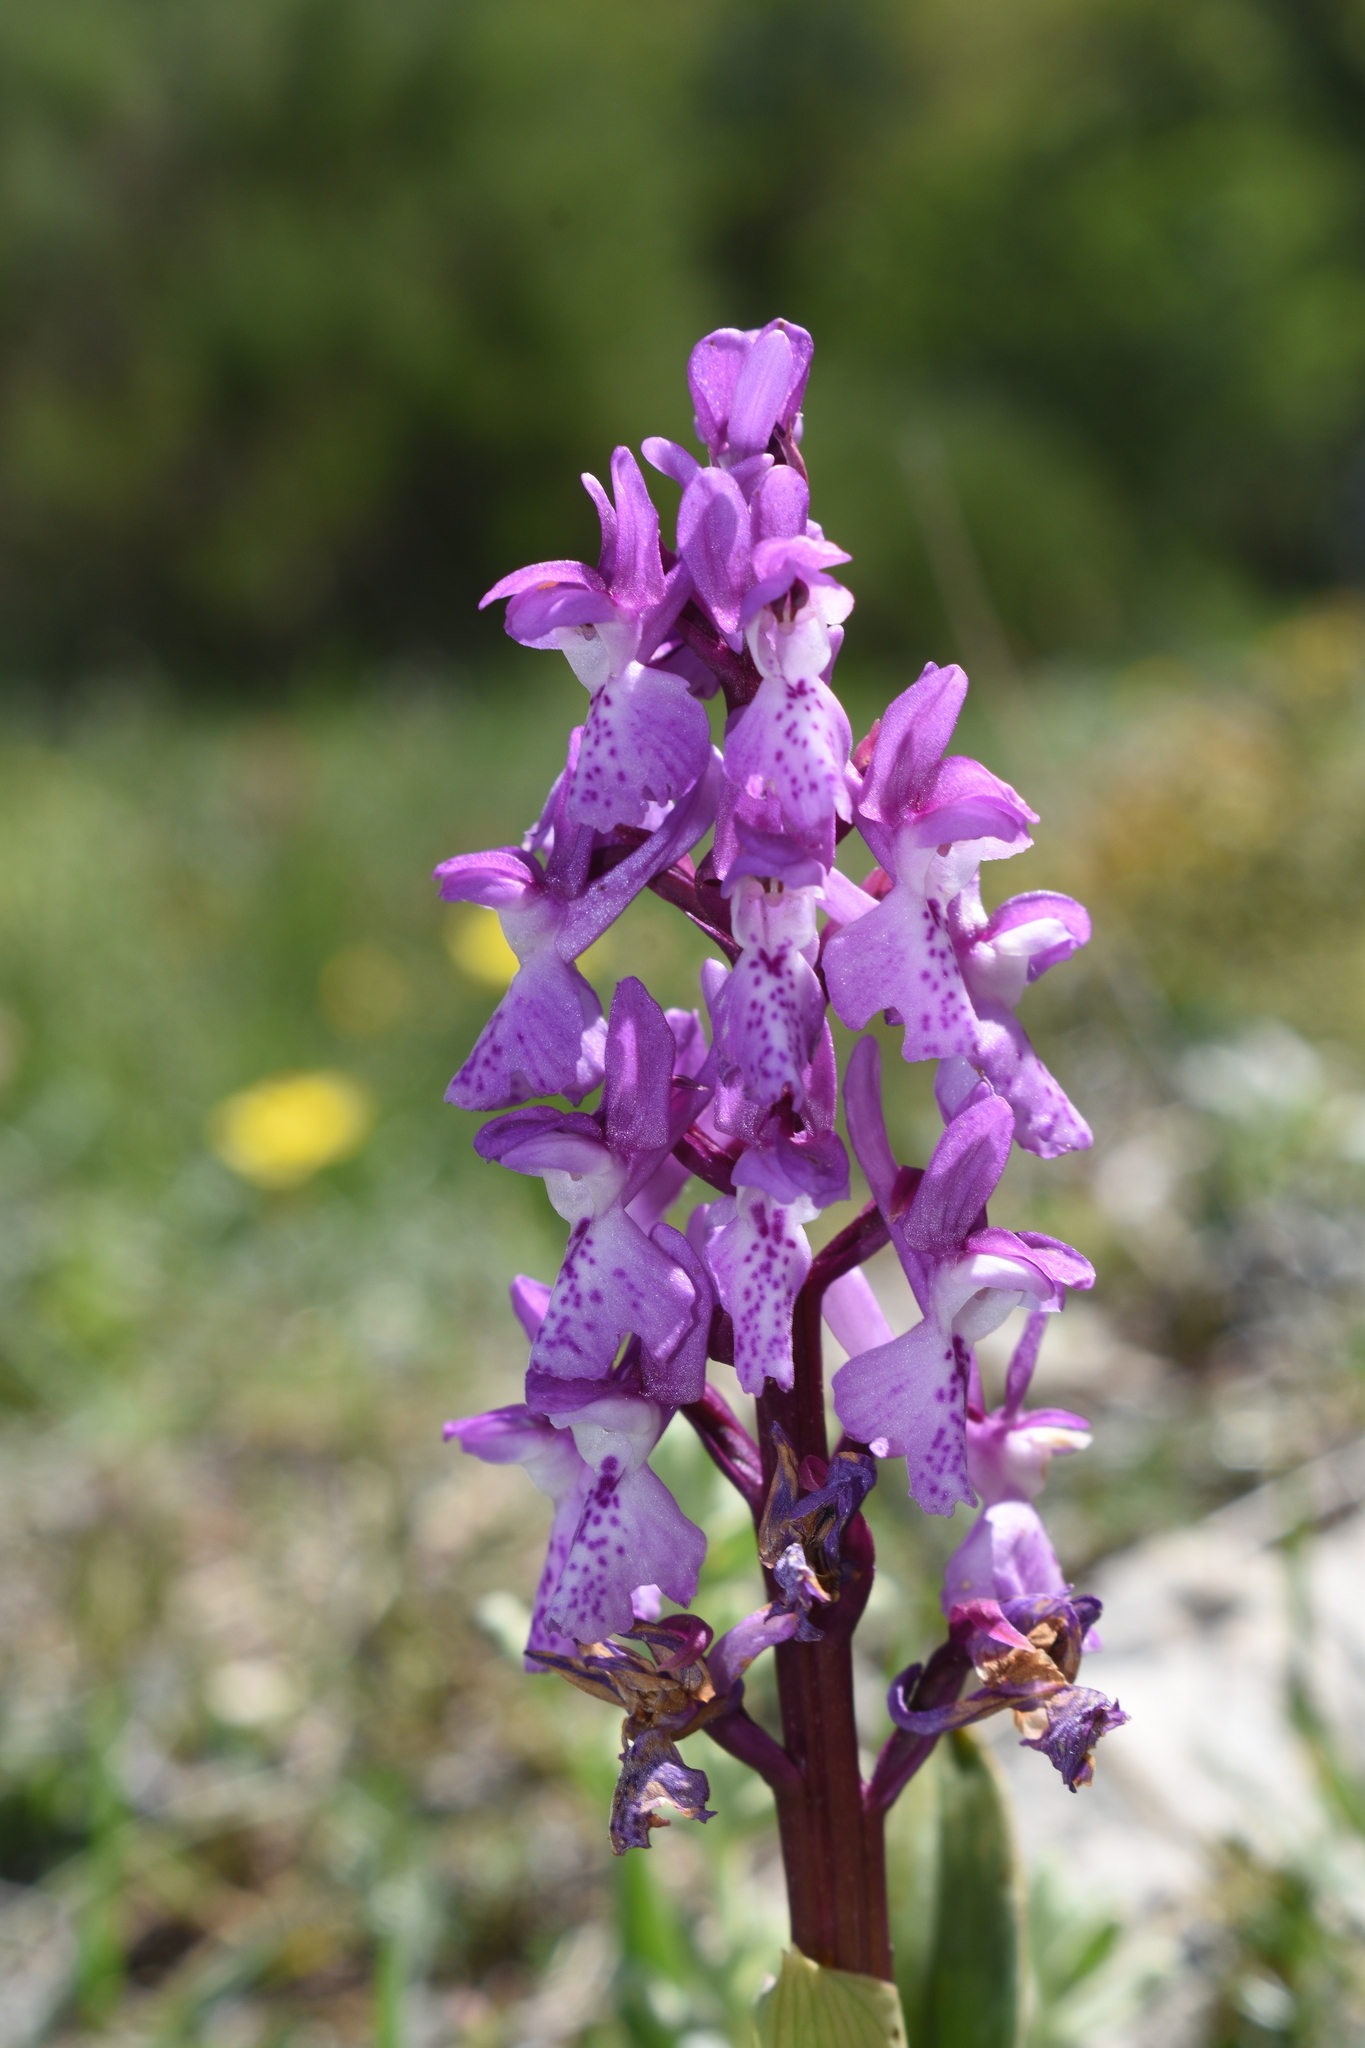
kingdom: Plantae
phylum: Tracheophyta
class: Liliopsida
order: Asparagales
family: Orchidaceae
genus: Orchis
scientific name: Orchis olbiensis
